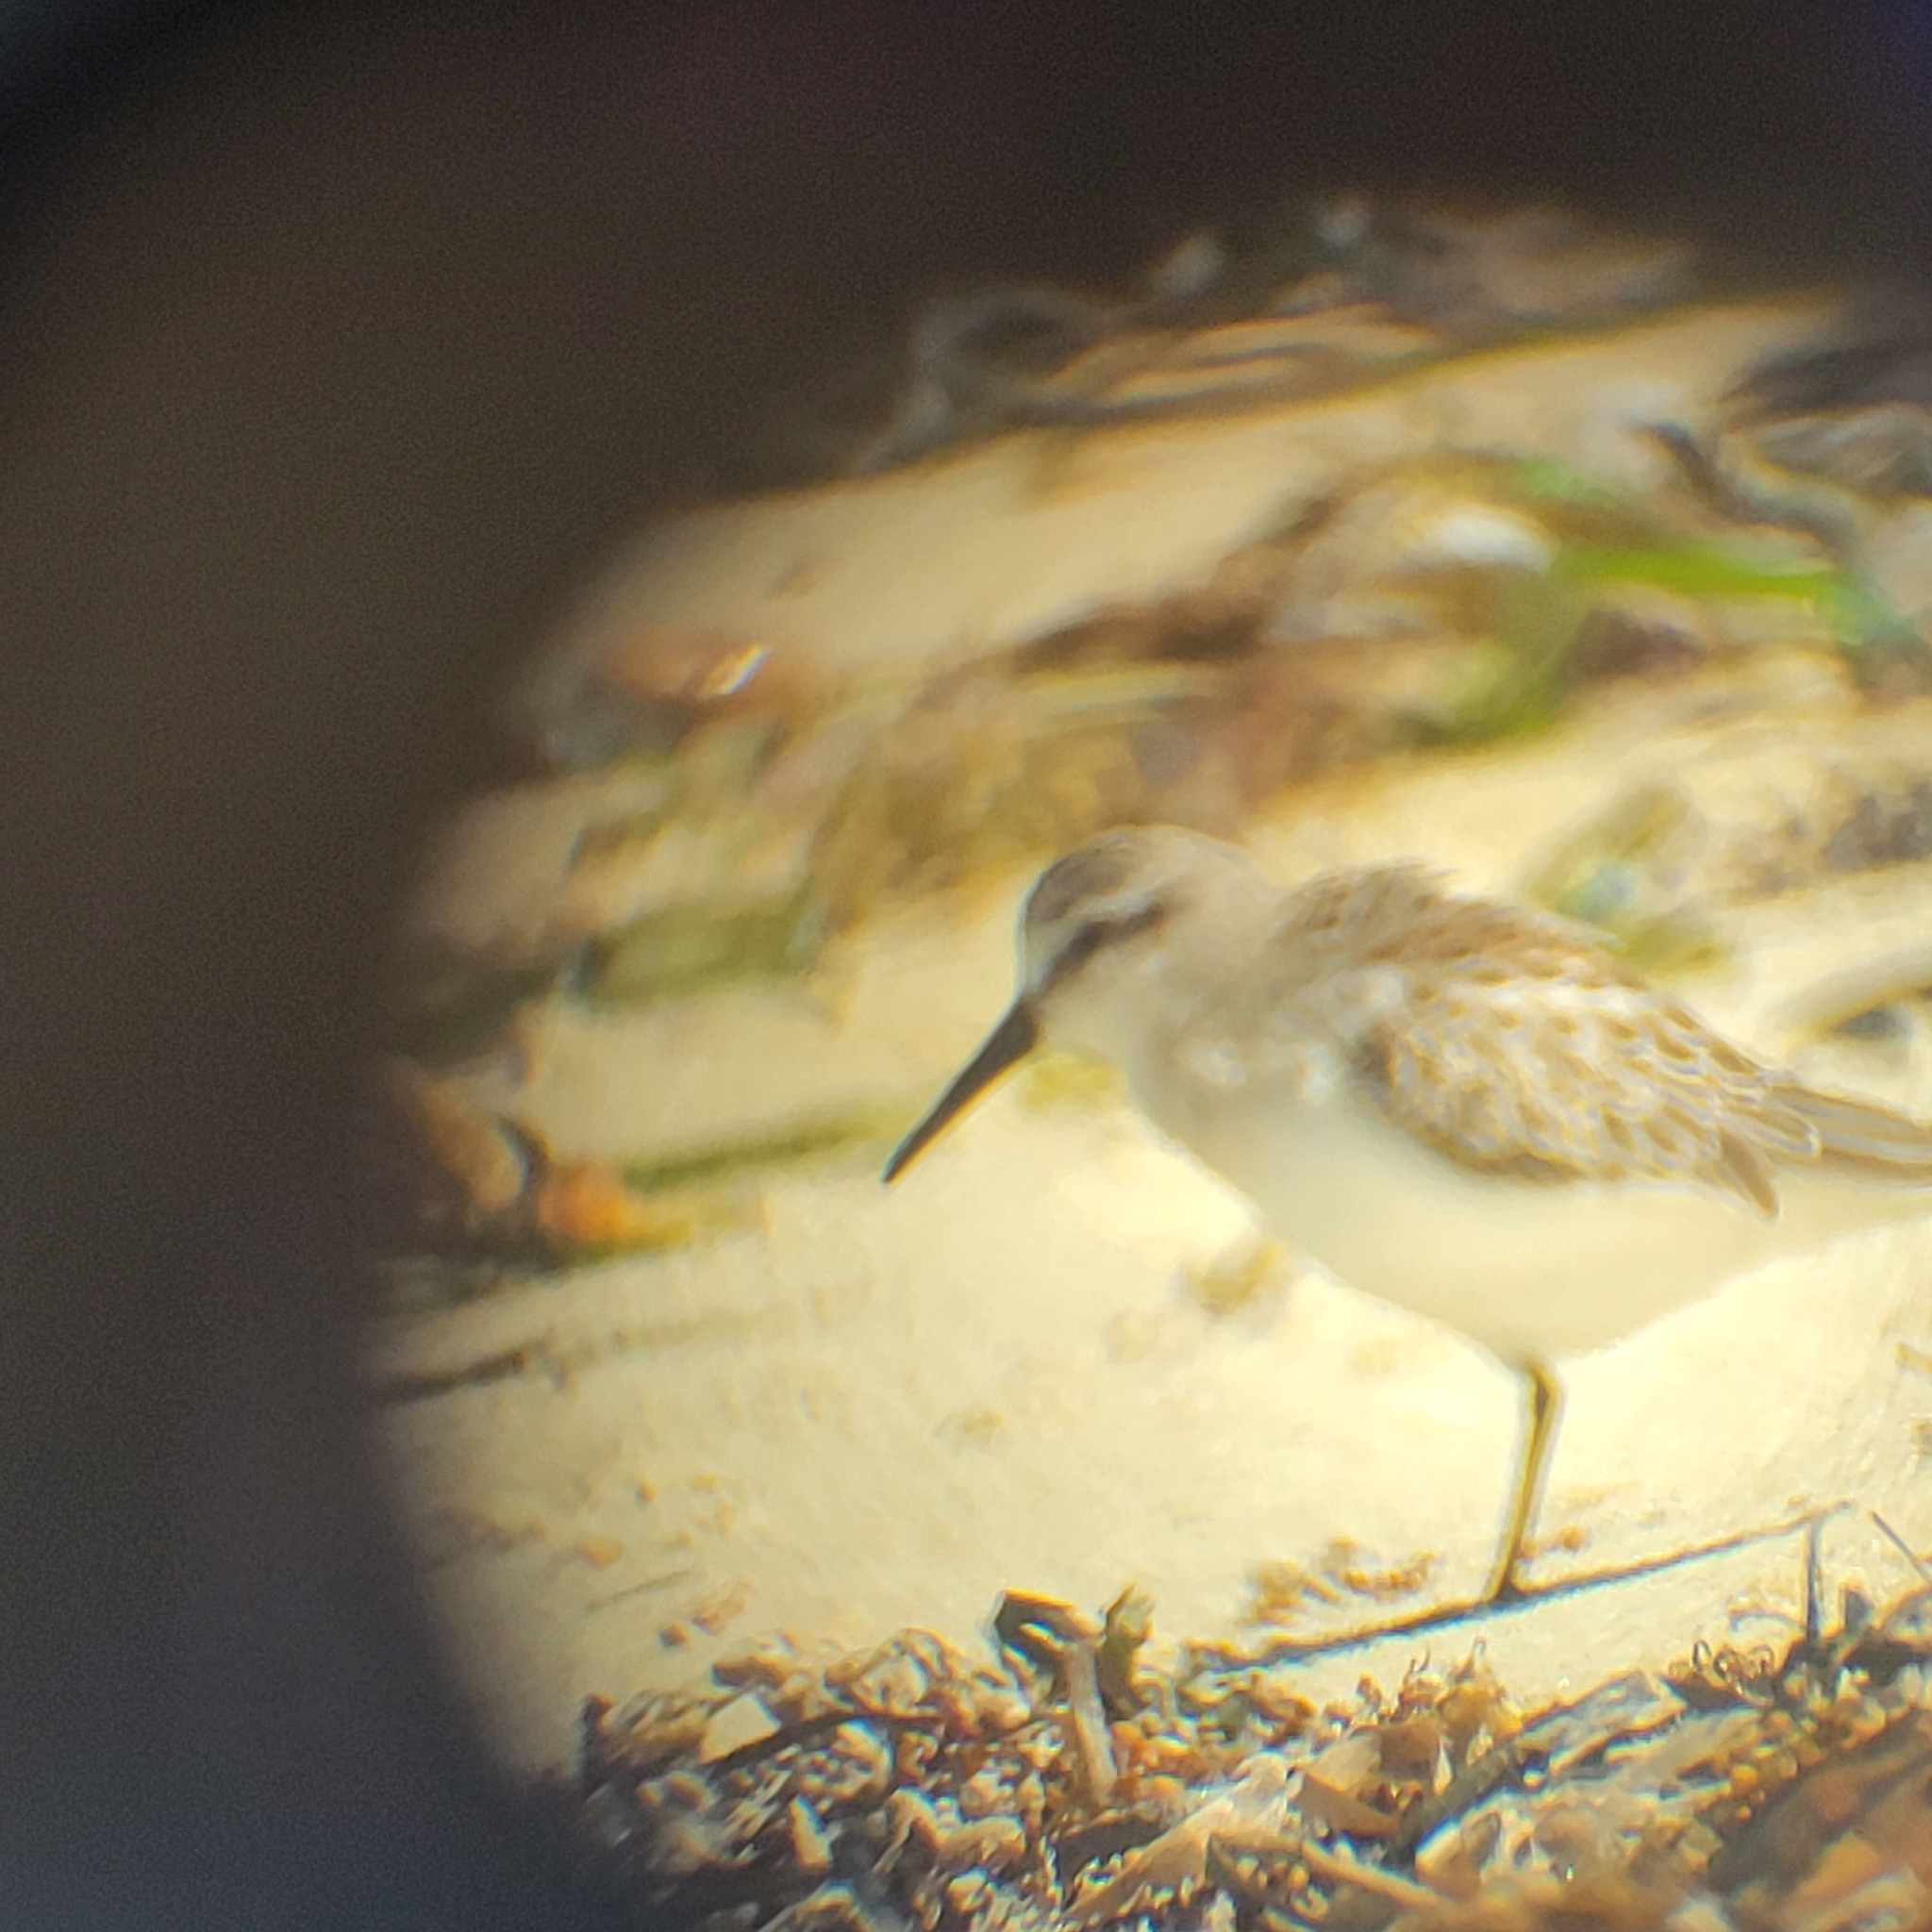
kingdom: Animalia
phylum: Chordata
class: Aves
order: Charadriiformes
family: Scolopacidae
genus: Calidris
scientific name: Calidris mauri
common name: Western sandpiper
